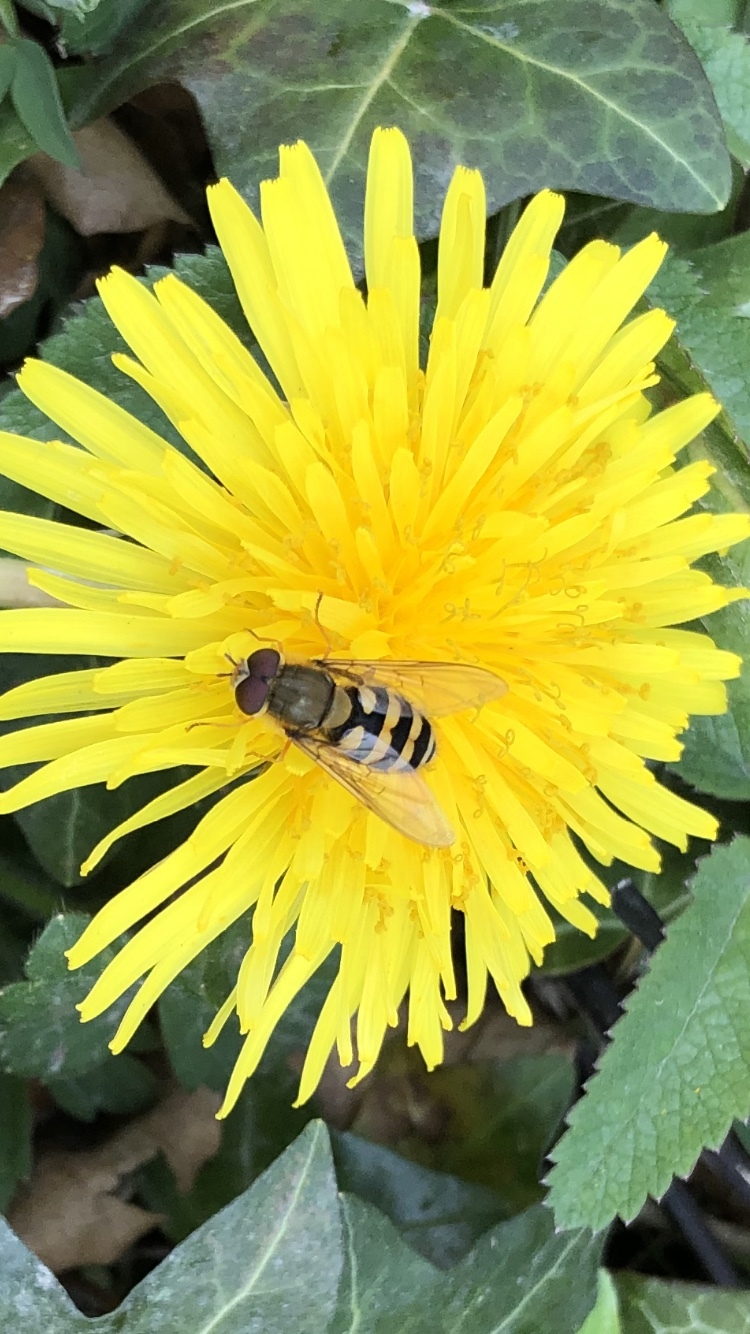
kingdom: Animalia
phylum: Arthropoda
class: Insecta
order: Diptera
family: Syrphidae
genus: Syrphus
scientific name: Syrphus
